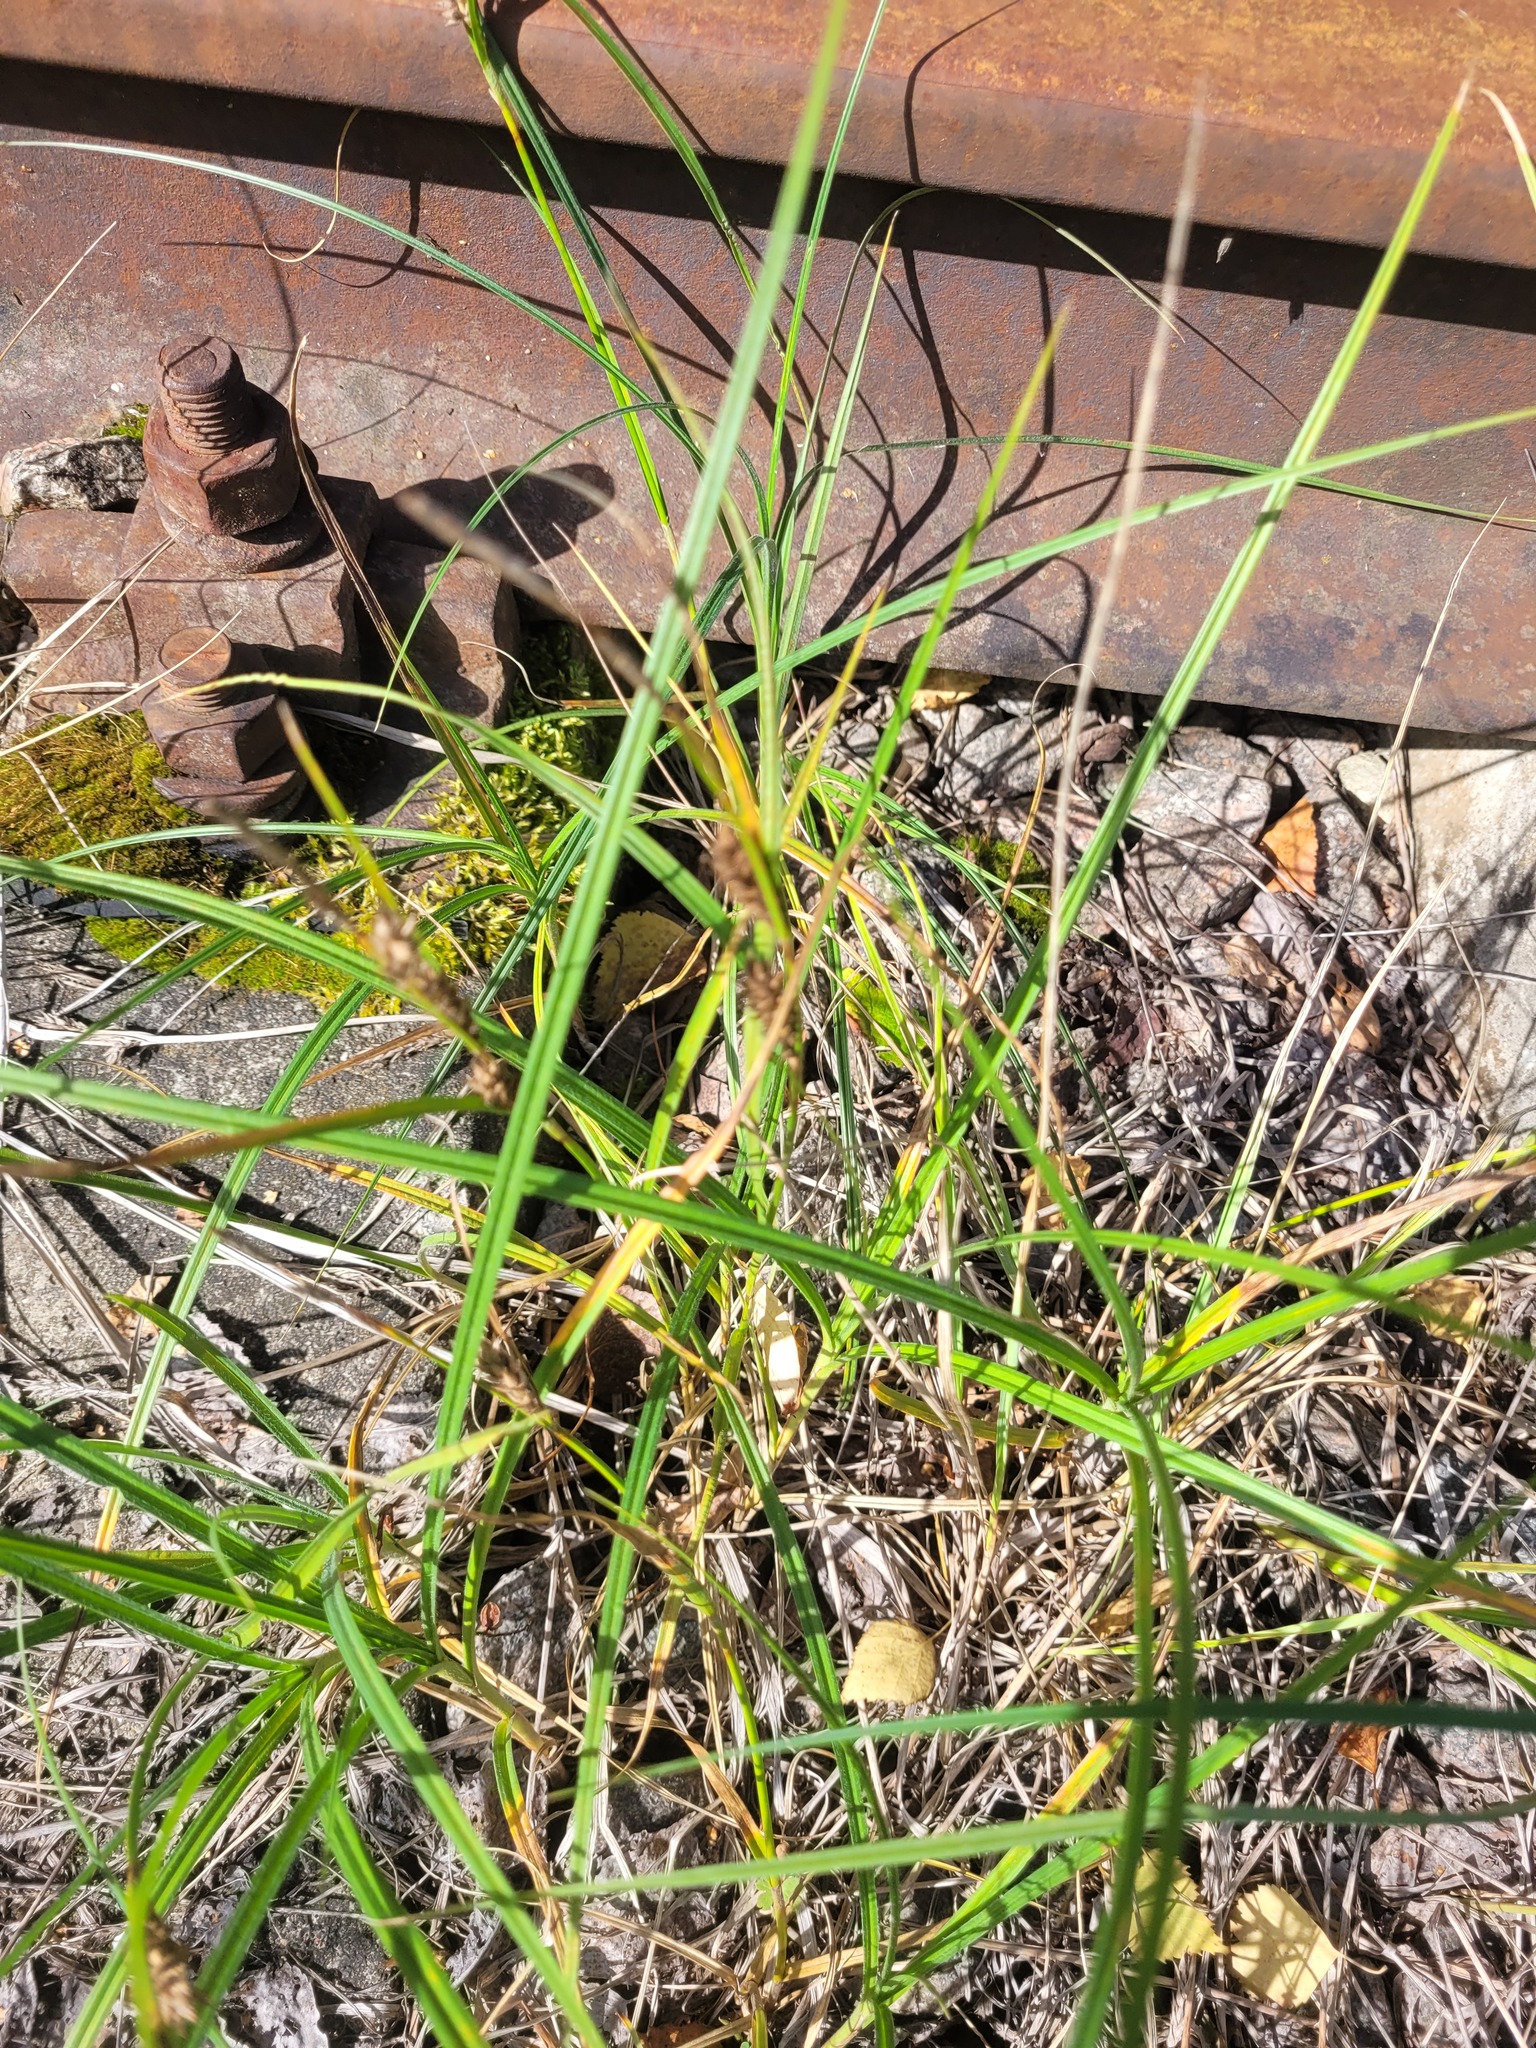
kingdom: Plantae
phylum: Tracheophyta
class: Liliopsida
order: Poales
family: Cyperaceae
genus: Carex
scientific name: Carex hirta
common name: Hairy sedge
